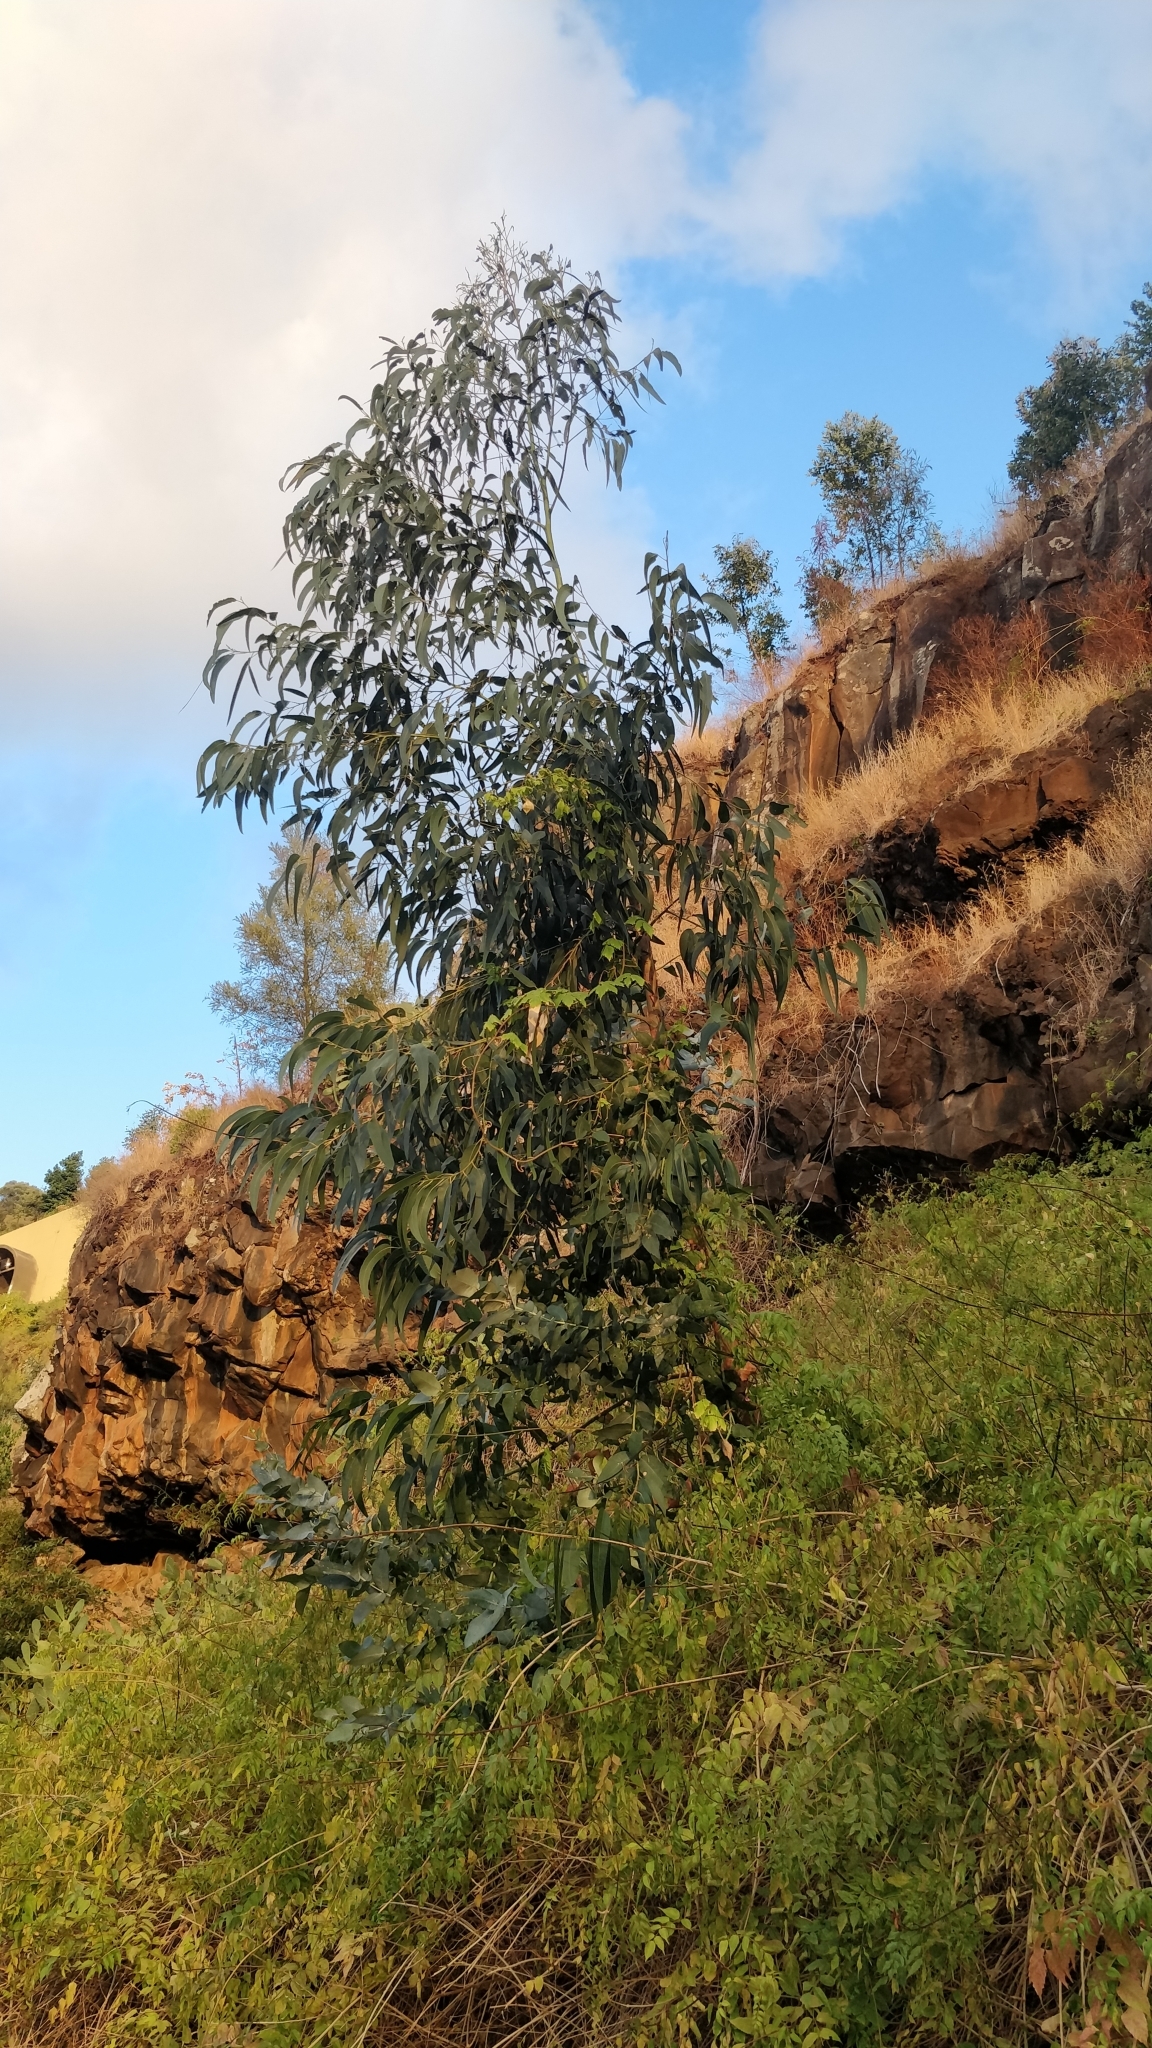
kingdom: Plantae
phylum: Tracheophyta
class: Magnoliopsida
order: Myrtales
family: Myrtaceae
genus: Eucalyptus
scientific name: Eucalyptus globulus
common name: Southern blue-gum
